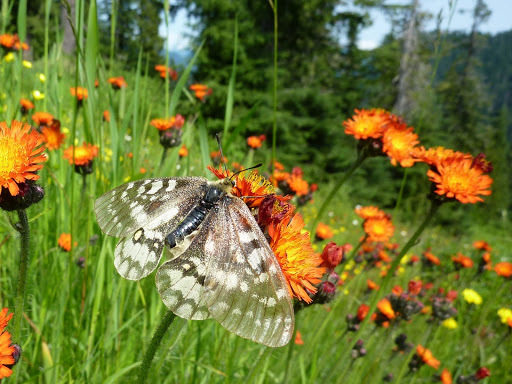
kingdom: Animalia
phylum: Arthropoda
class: Insecta
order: Lepidoptera
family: Papilionidae
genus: Parnassius
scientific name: Parnassius clodius
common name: American apollo
